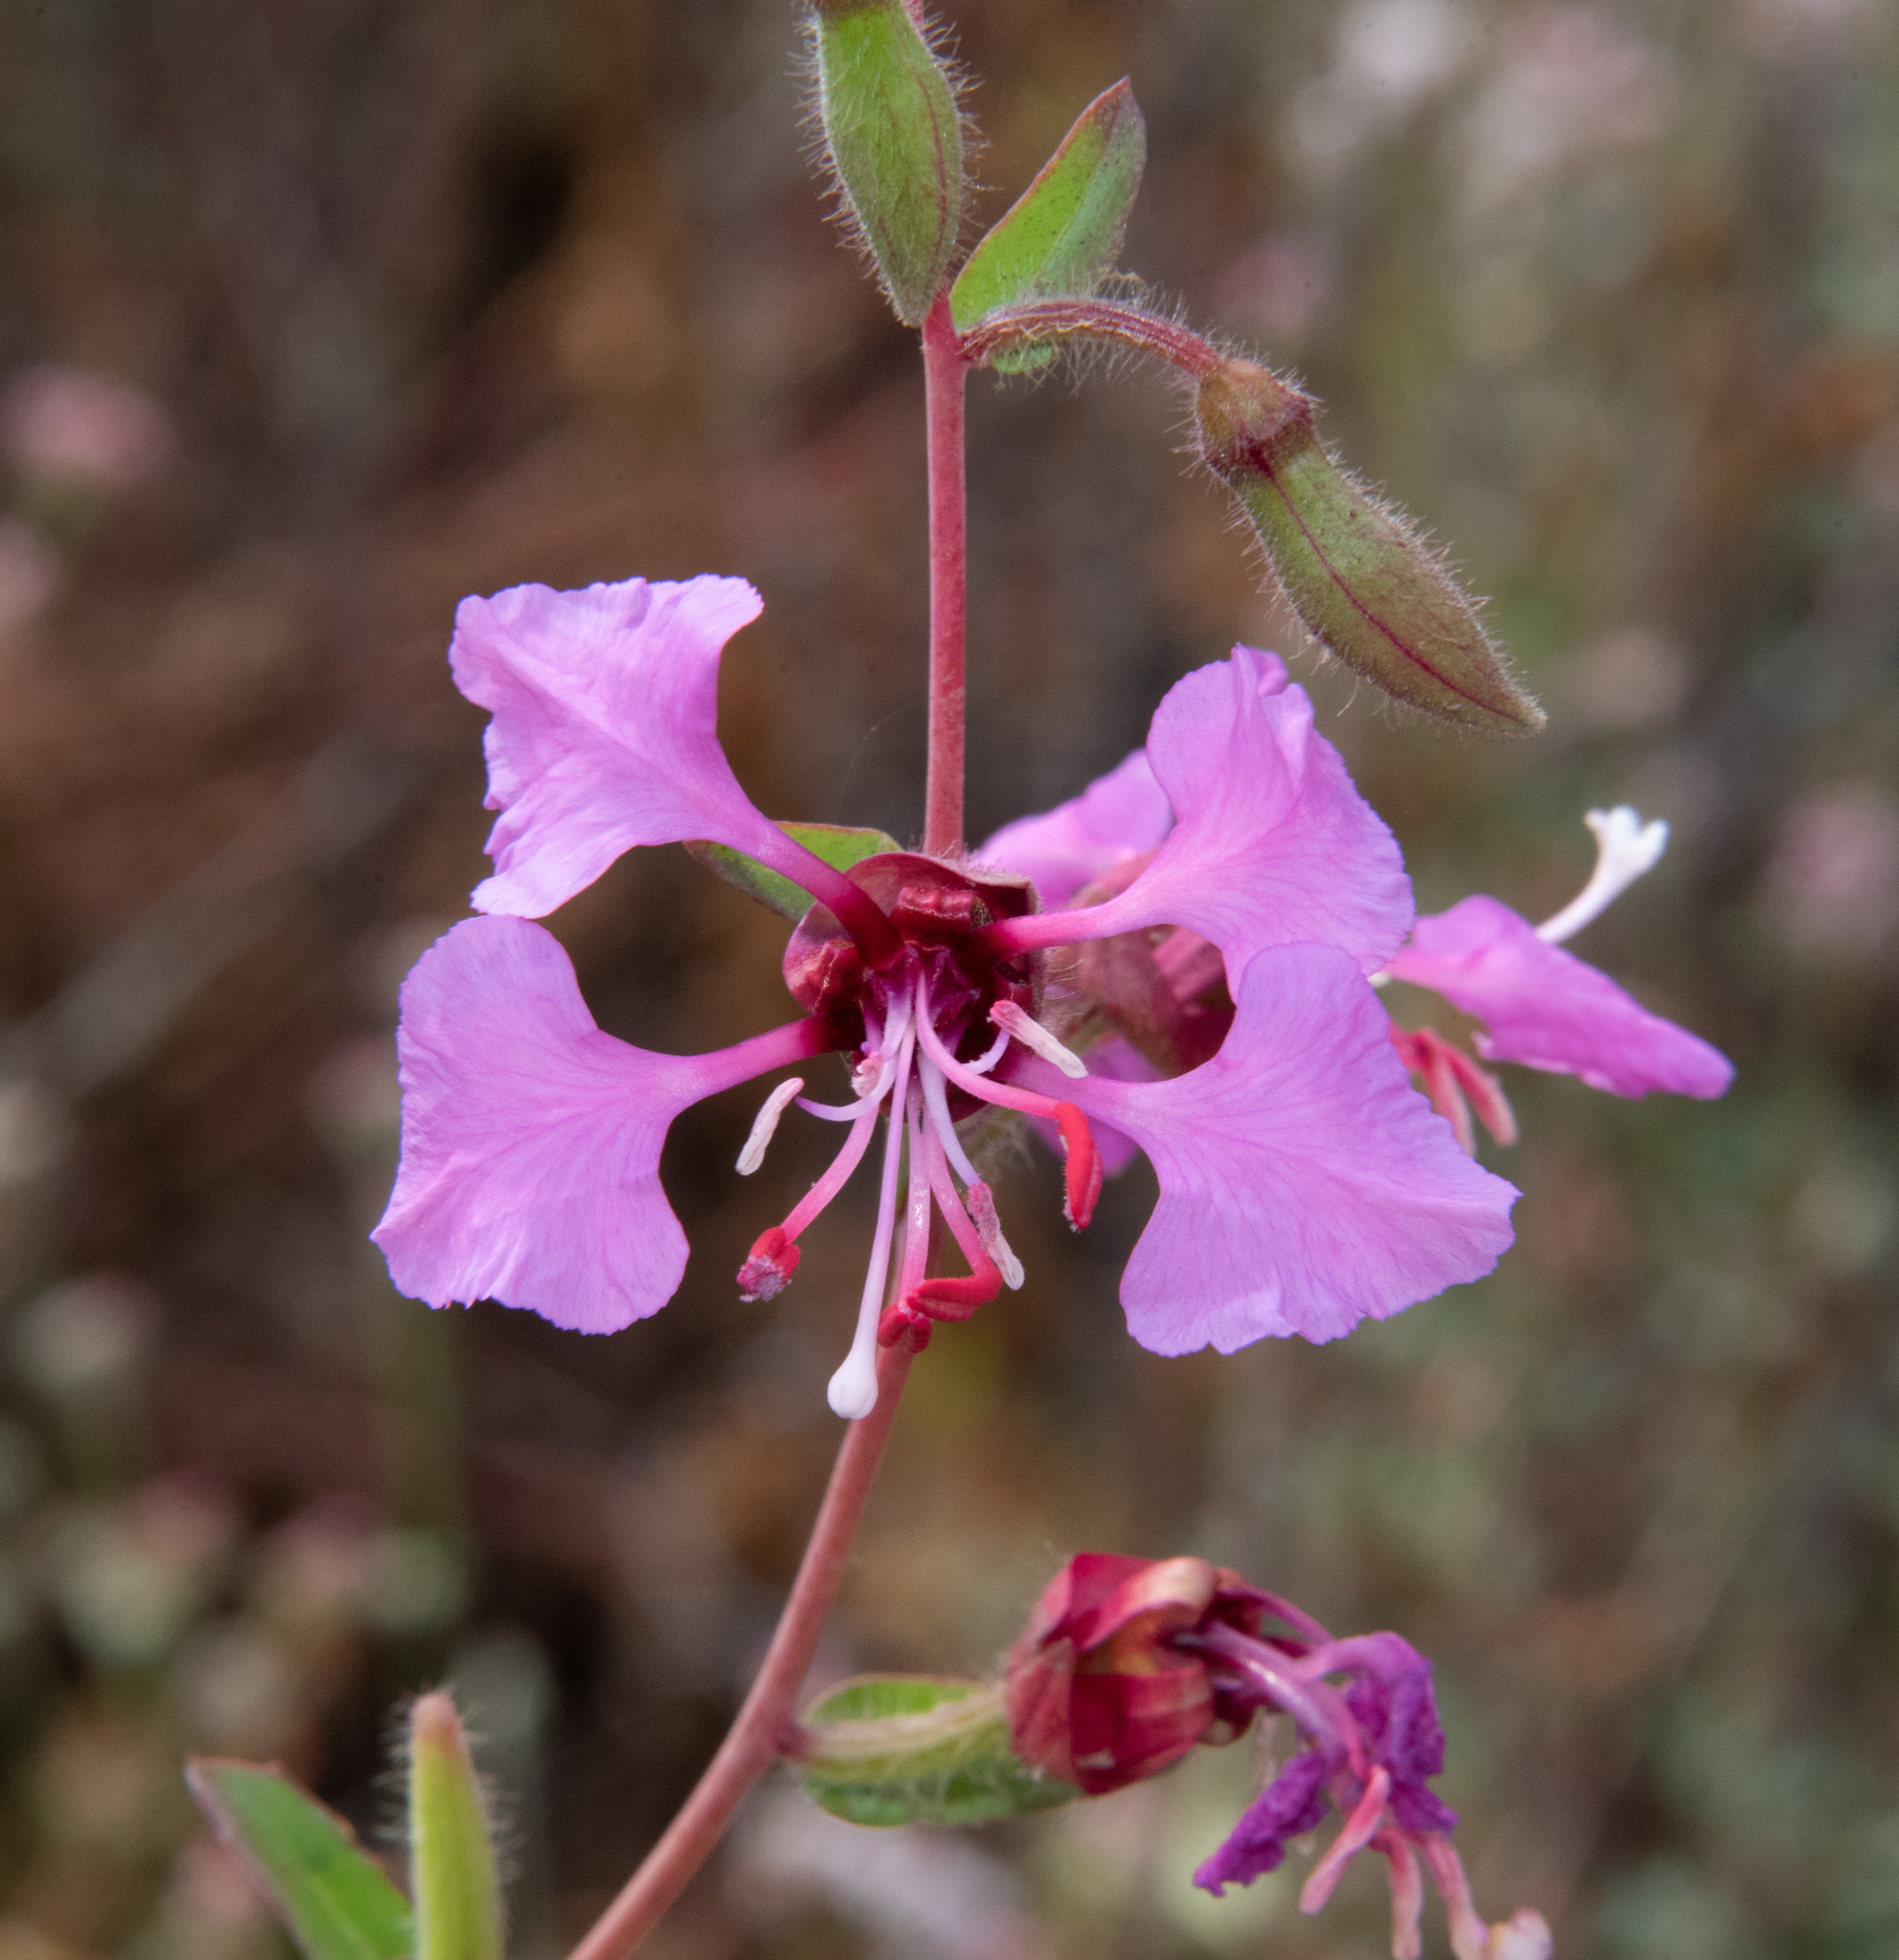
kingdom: Plantae
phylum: Tracheophyta
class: Magnoliopsida
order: Myrtales
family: Onagraceae
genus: Clarkia
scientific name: Clarkia unguiculata
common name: Clarkia
